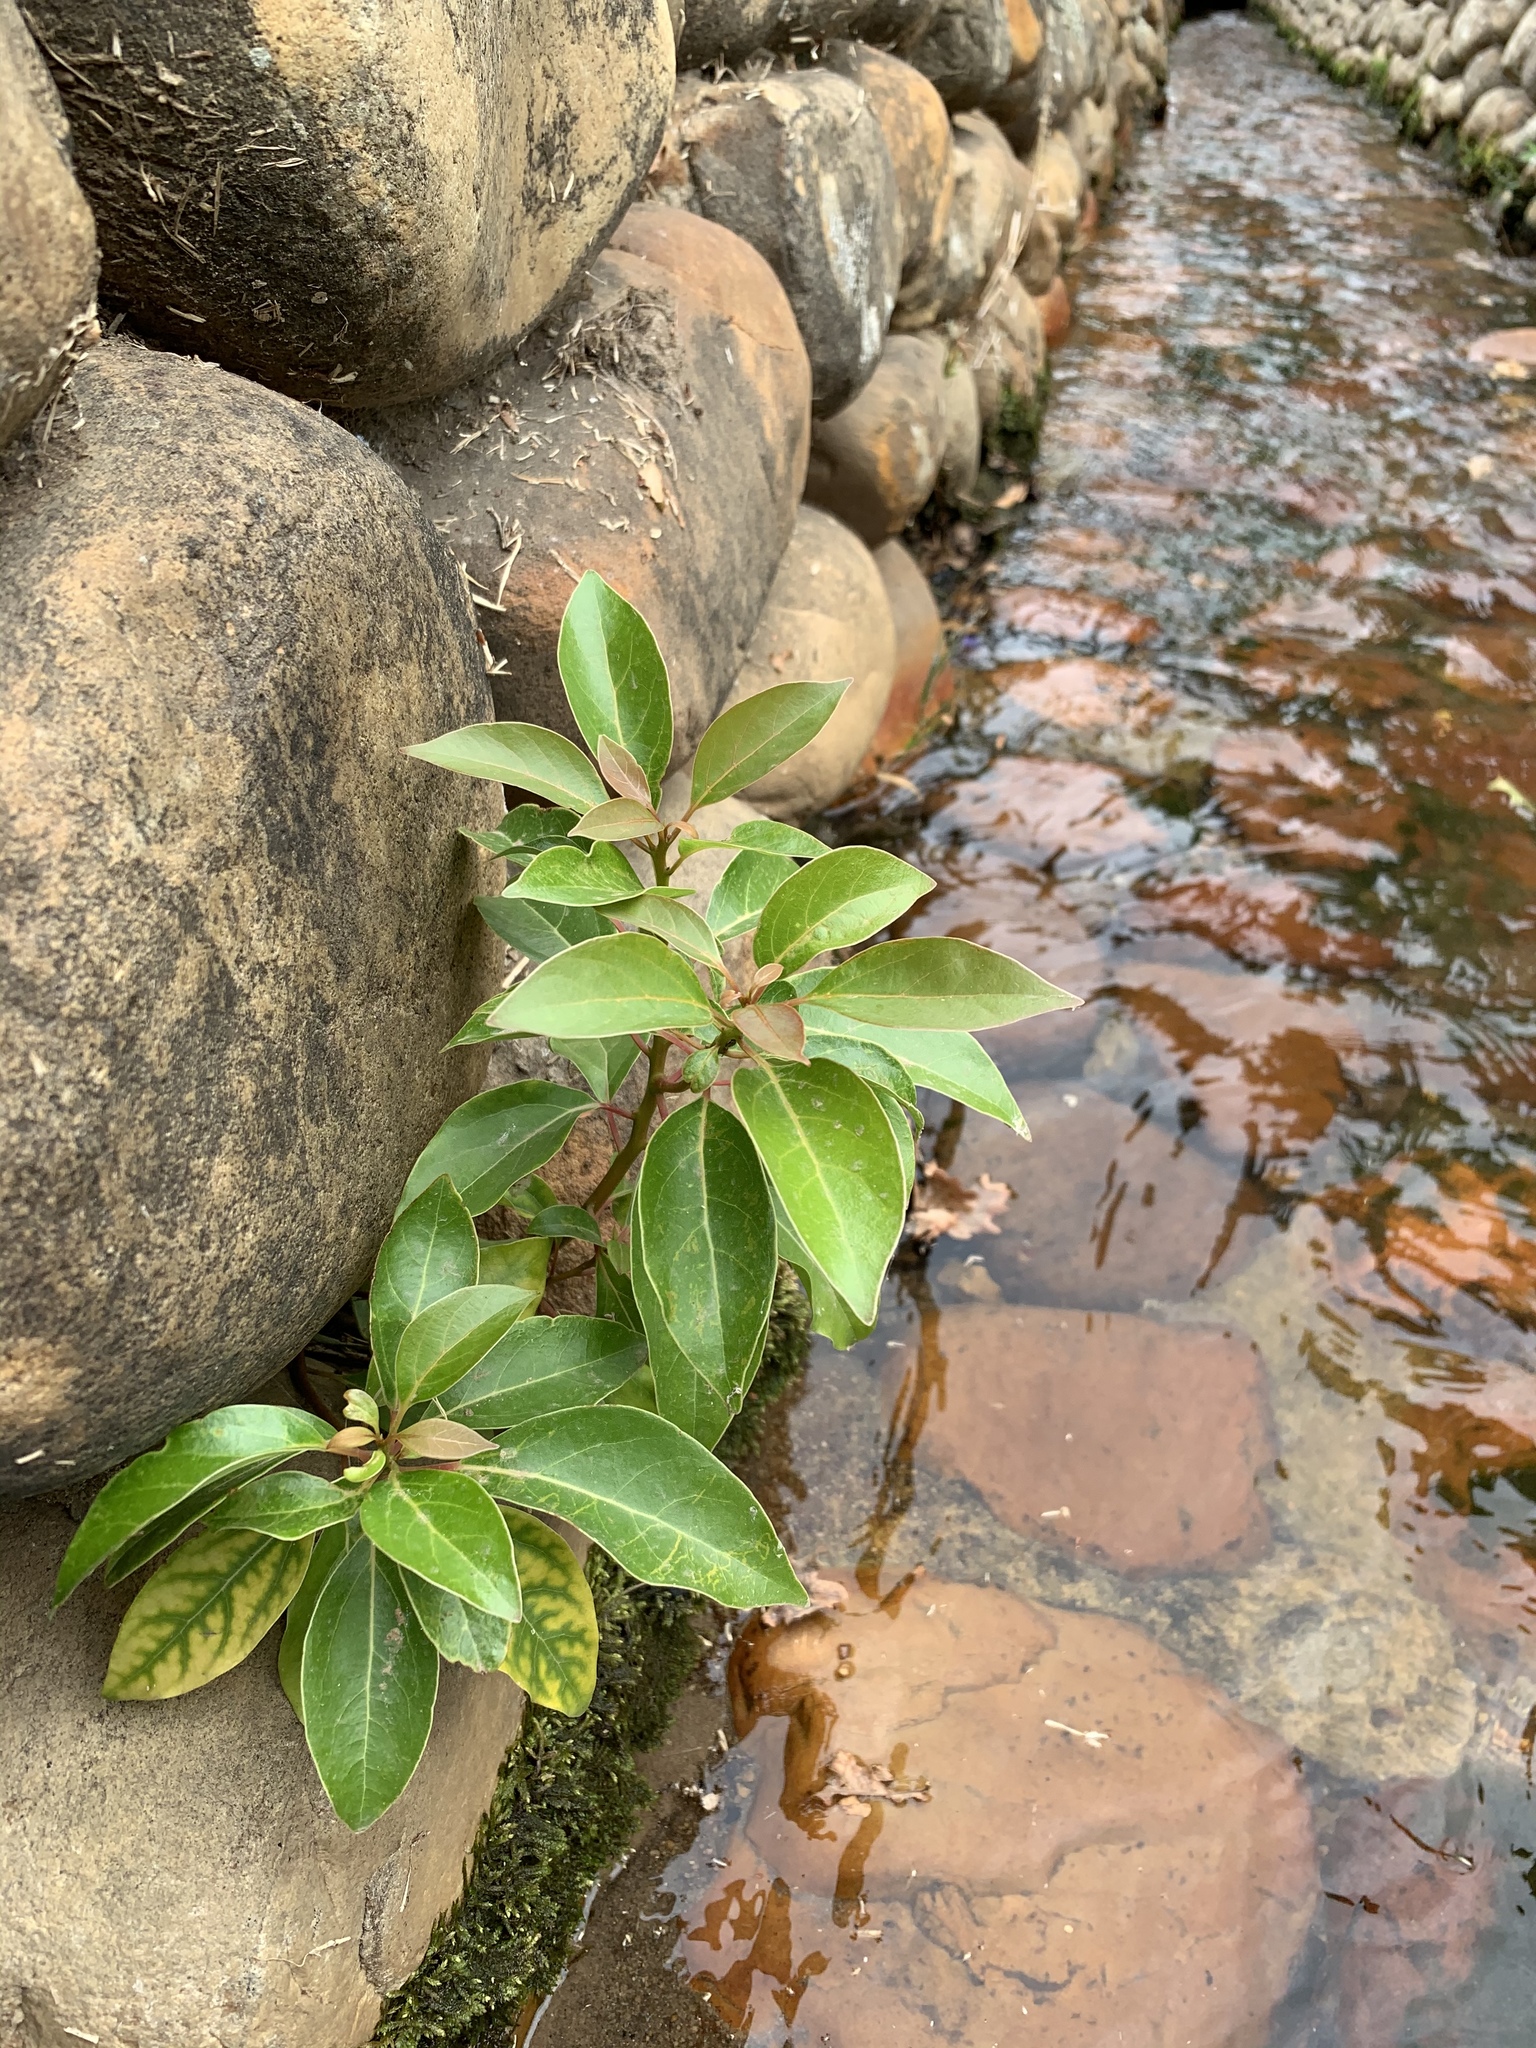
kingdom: Plantae
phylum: Tracheophyta
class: Magnoliopsida
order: Laurales
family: Lauraceae
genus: Cinnamomum
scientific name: Cinnamomum camphora
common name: Camphortree
